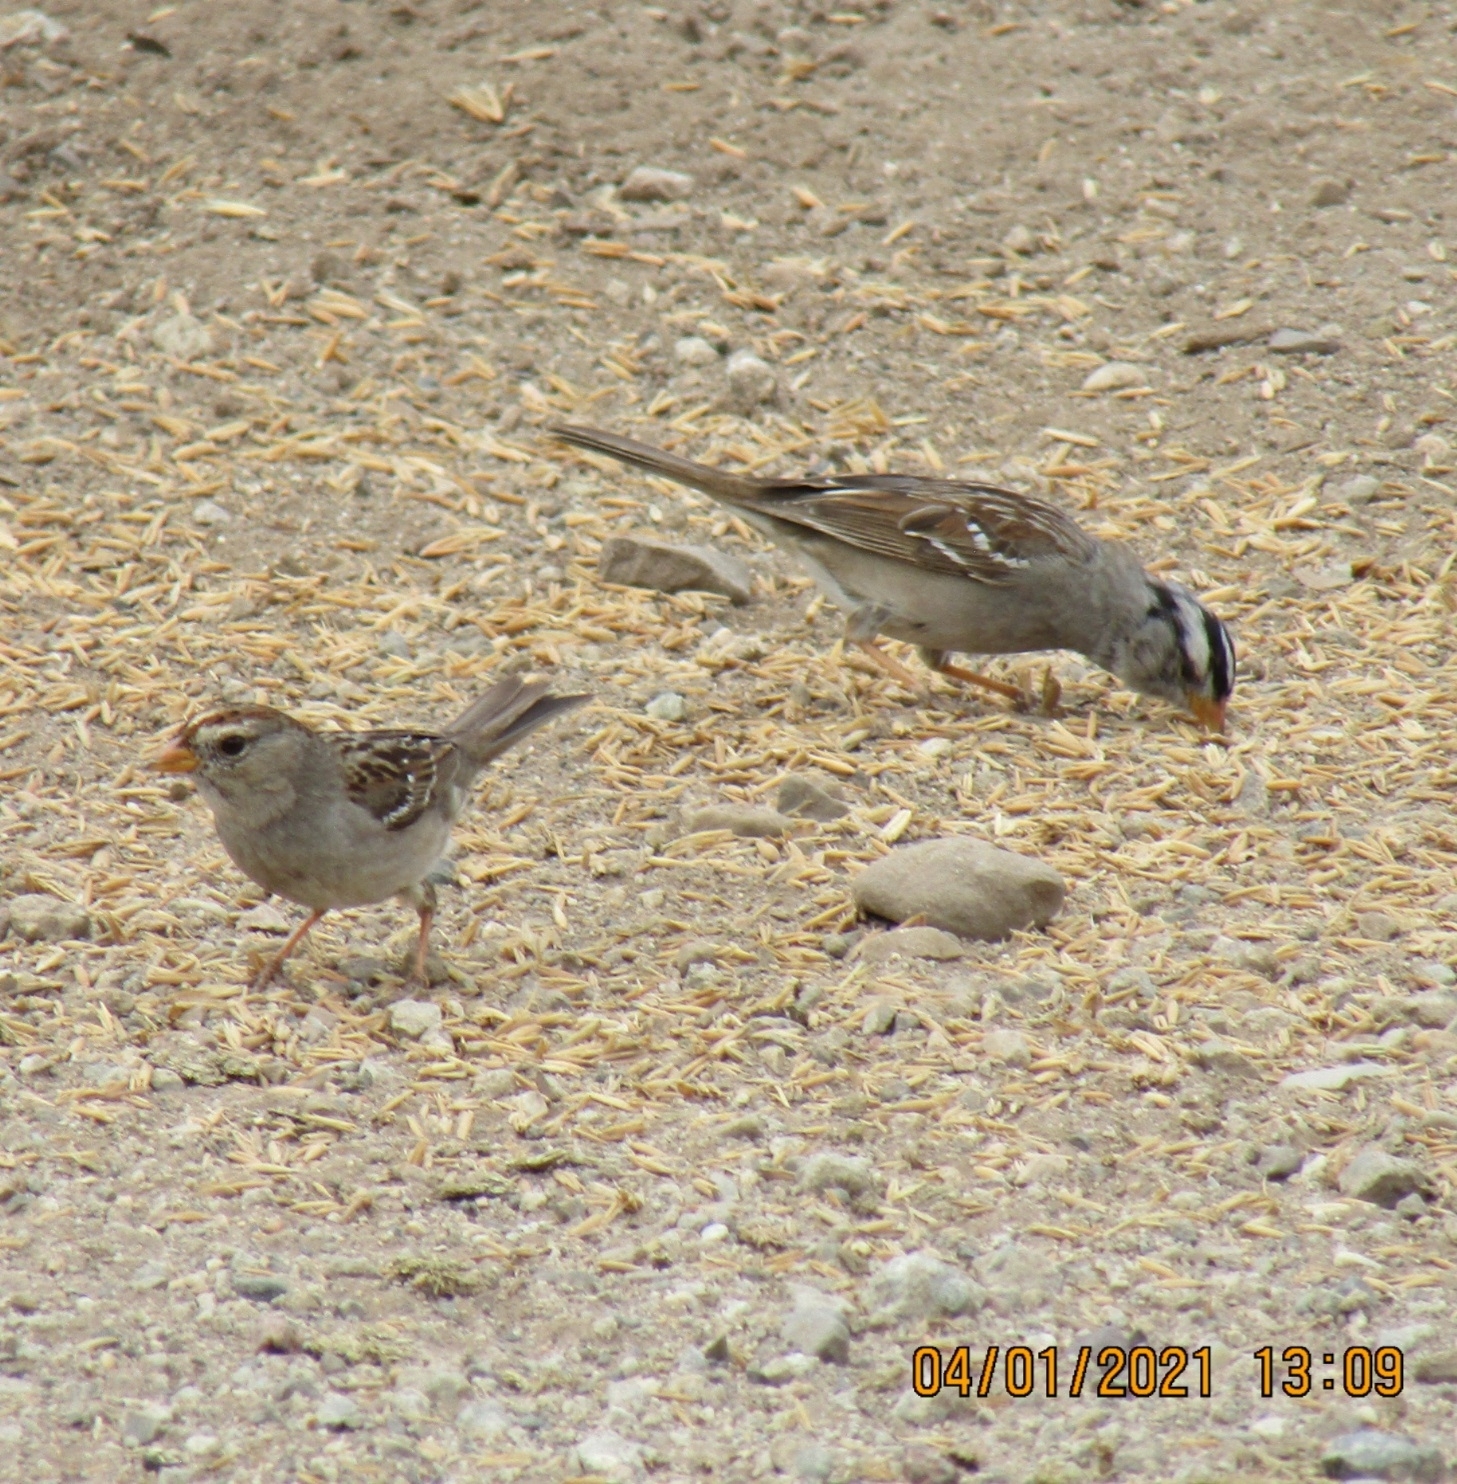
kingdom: Animalia
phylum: Chordata
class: Aves
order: Passeriformes
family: Passerellidae
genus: Zonotrichia
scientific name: Zonotrichia leucophrys
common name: White-crowned sparrow
